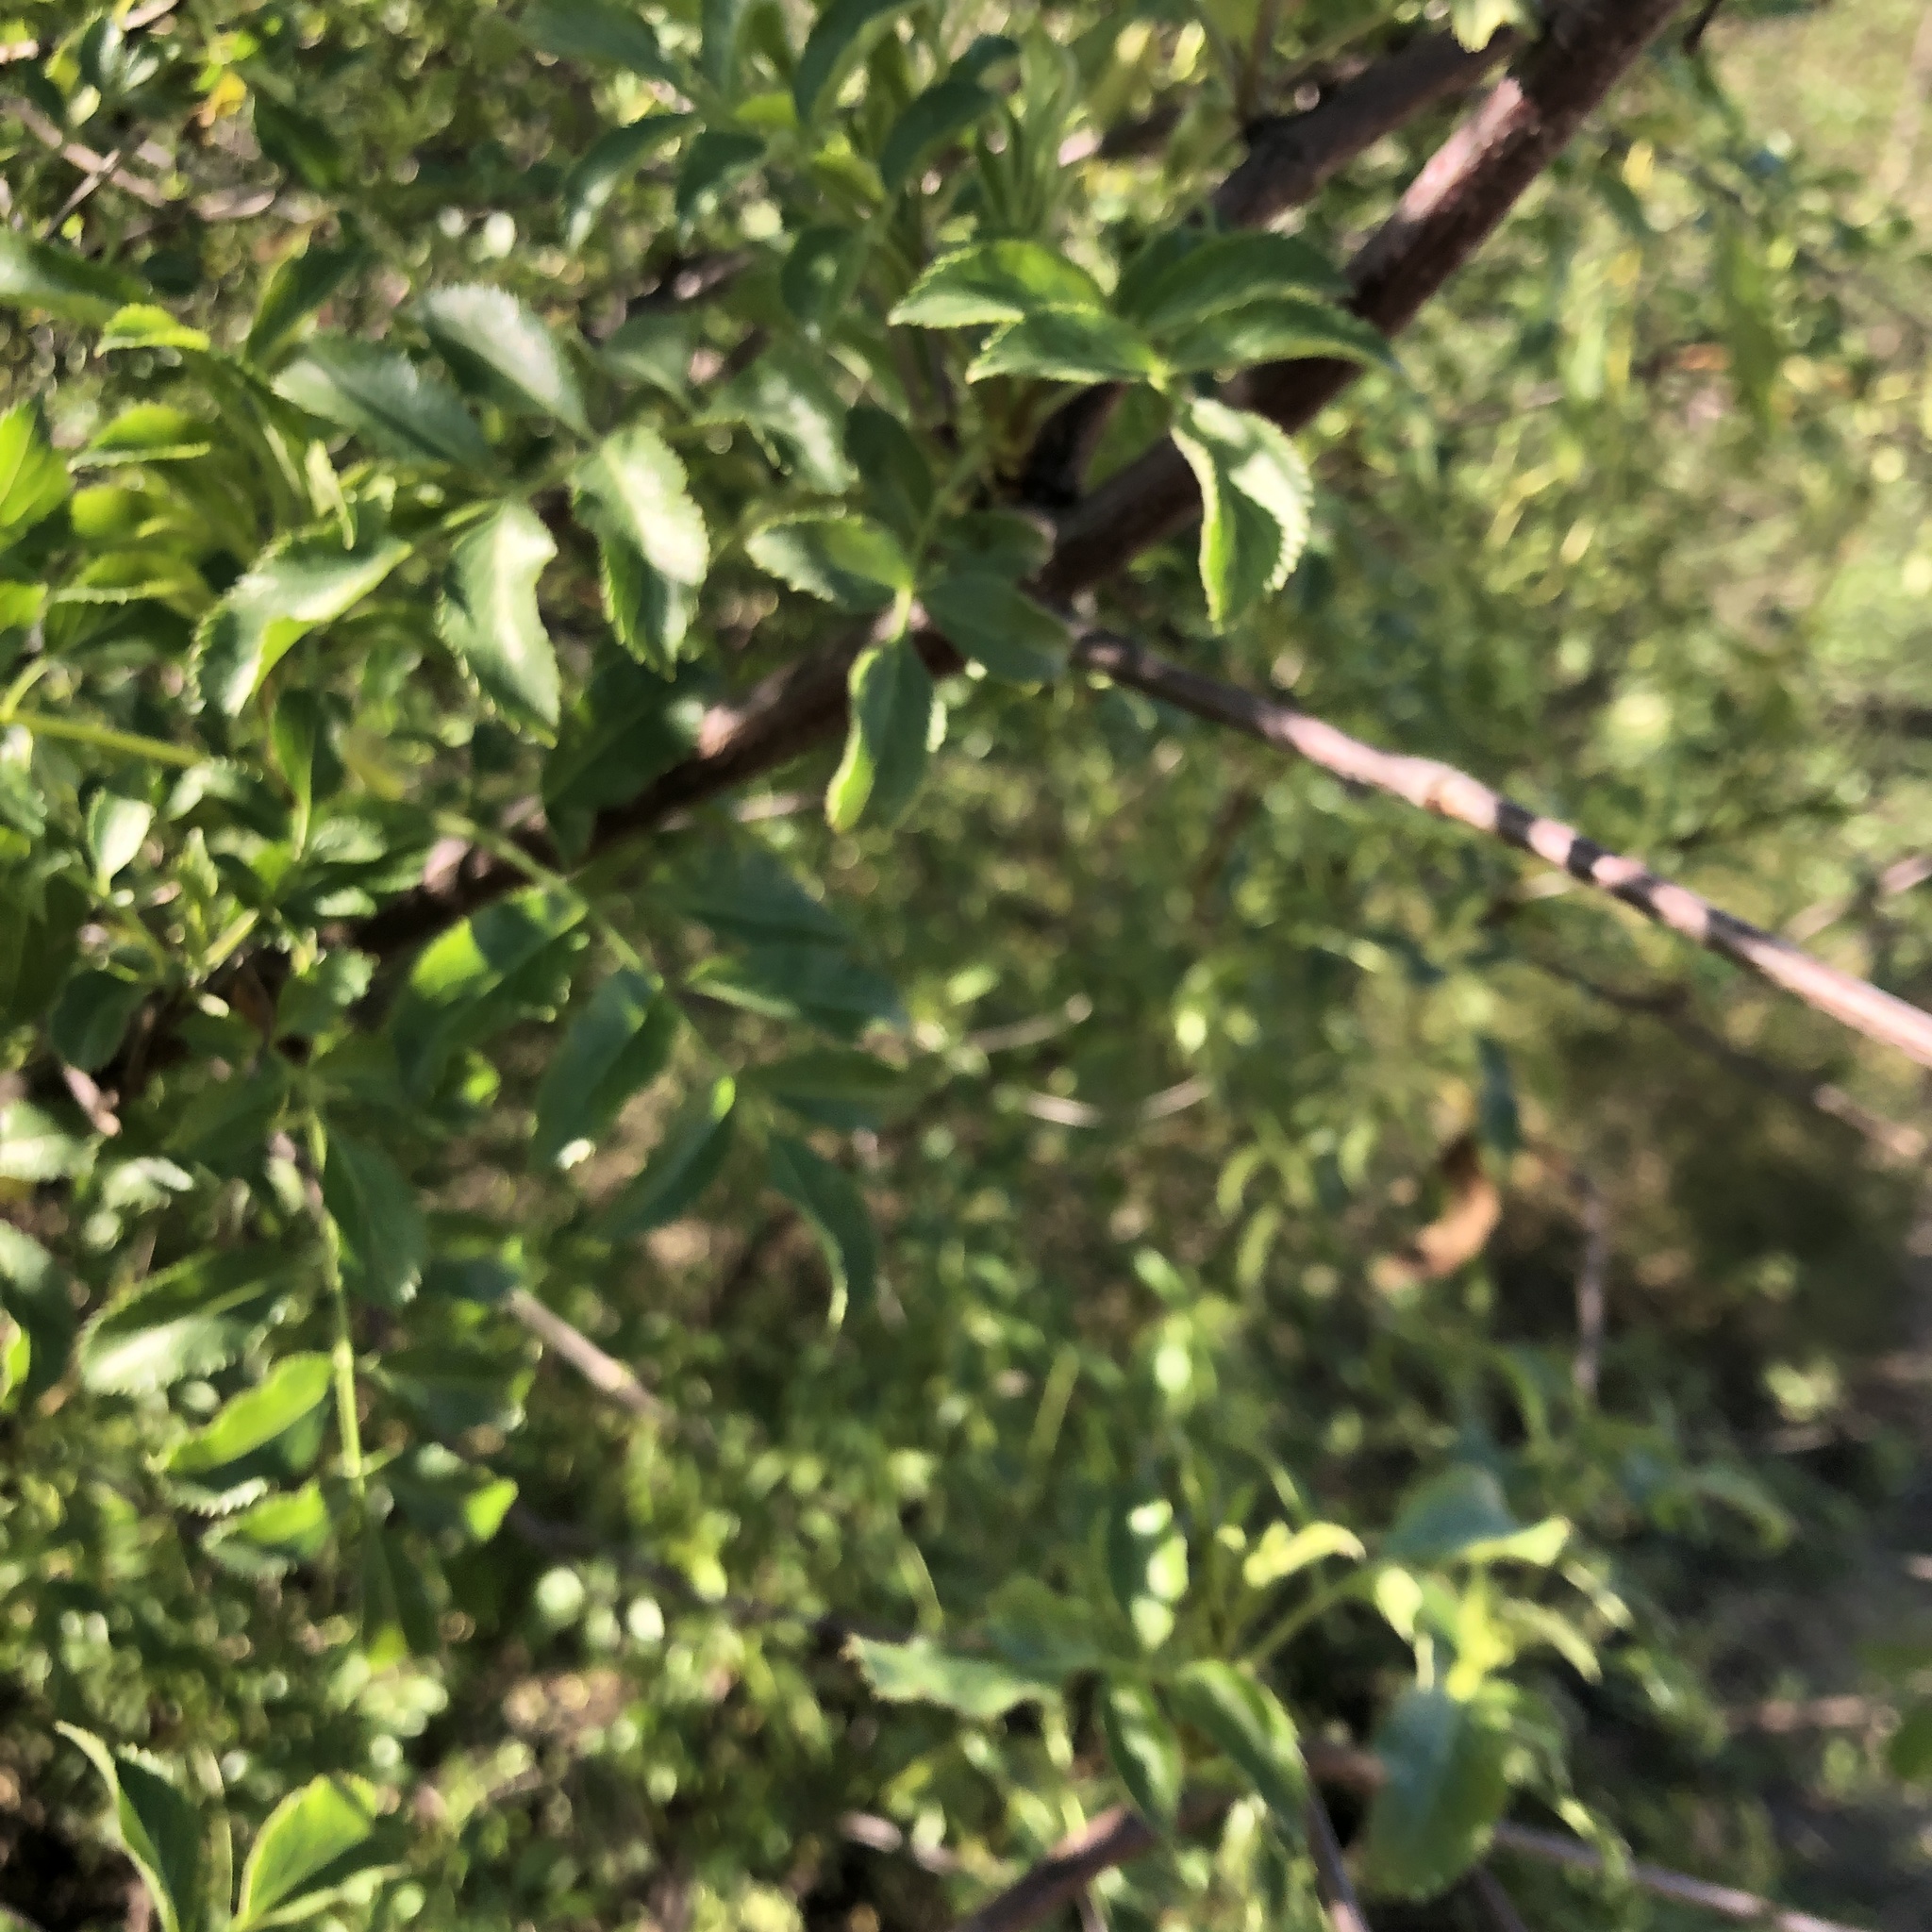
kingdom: Plantae
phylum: Tracheophyta
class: Magnoliopsida
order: Dipsacales
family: Viburnaceae
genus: Sambucus
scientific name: Sambucus cerulea
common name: Blue elder
